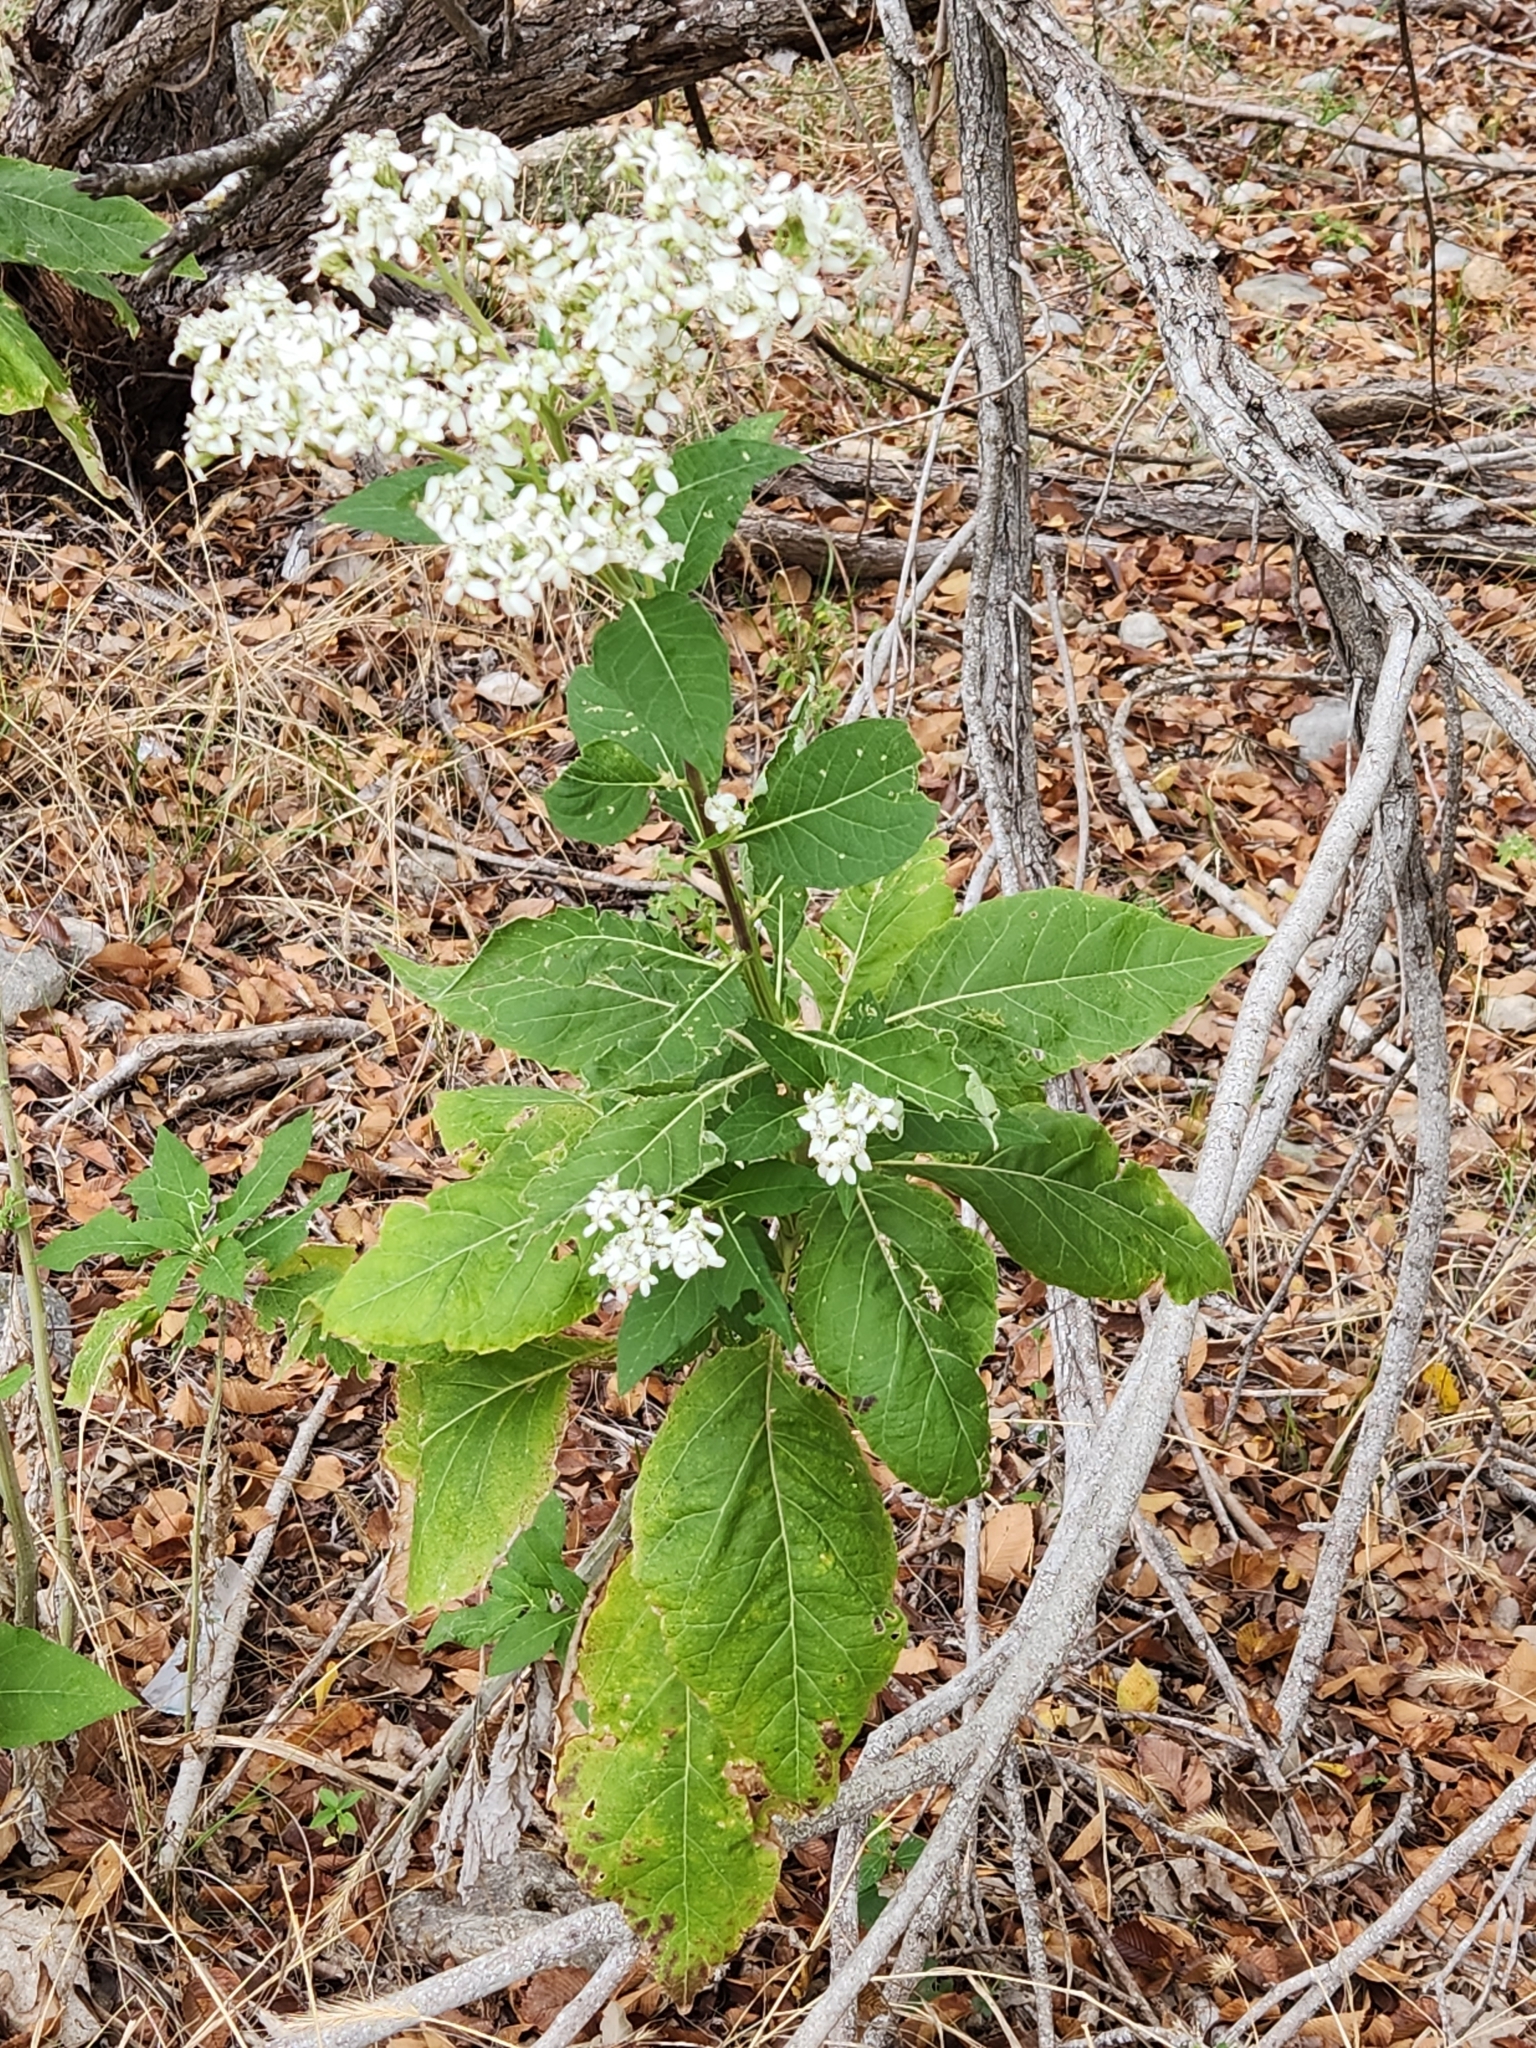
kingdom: Plantae
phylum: Tracheophyta
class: Magnoliopsida
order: Asterales
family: Asteraceae
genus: Verbesina
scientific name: Verbesina virginica
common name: Frostweed
